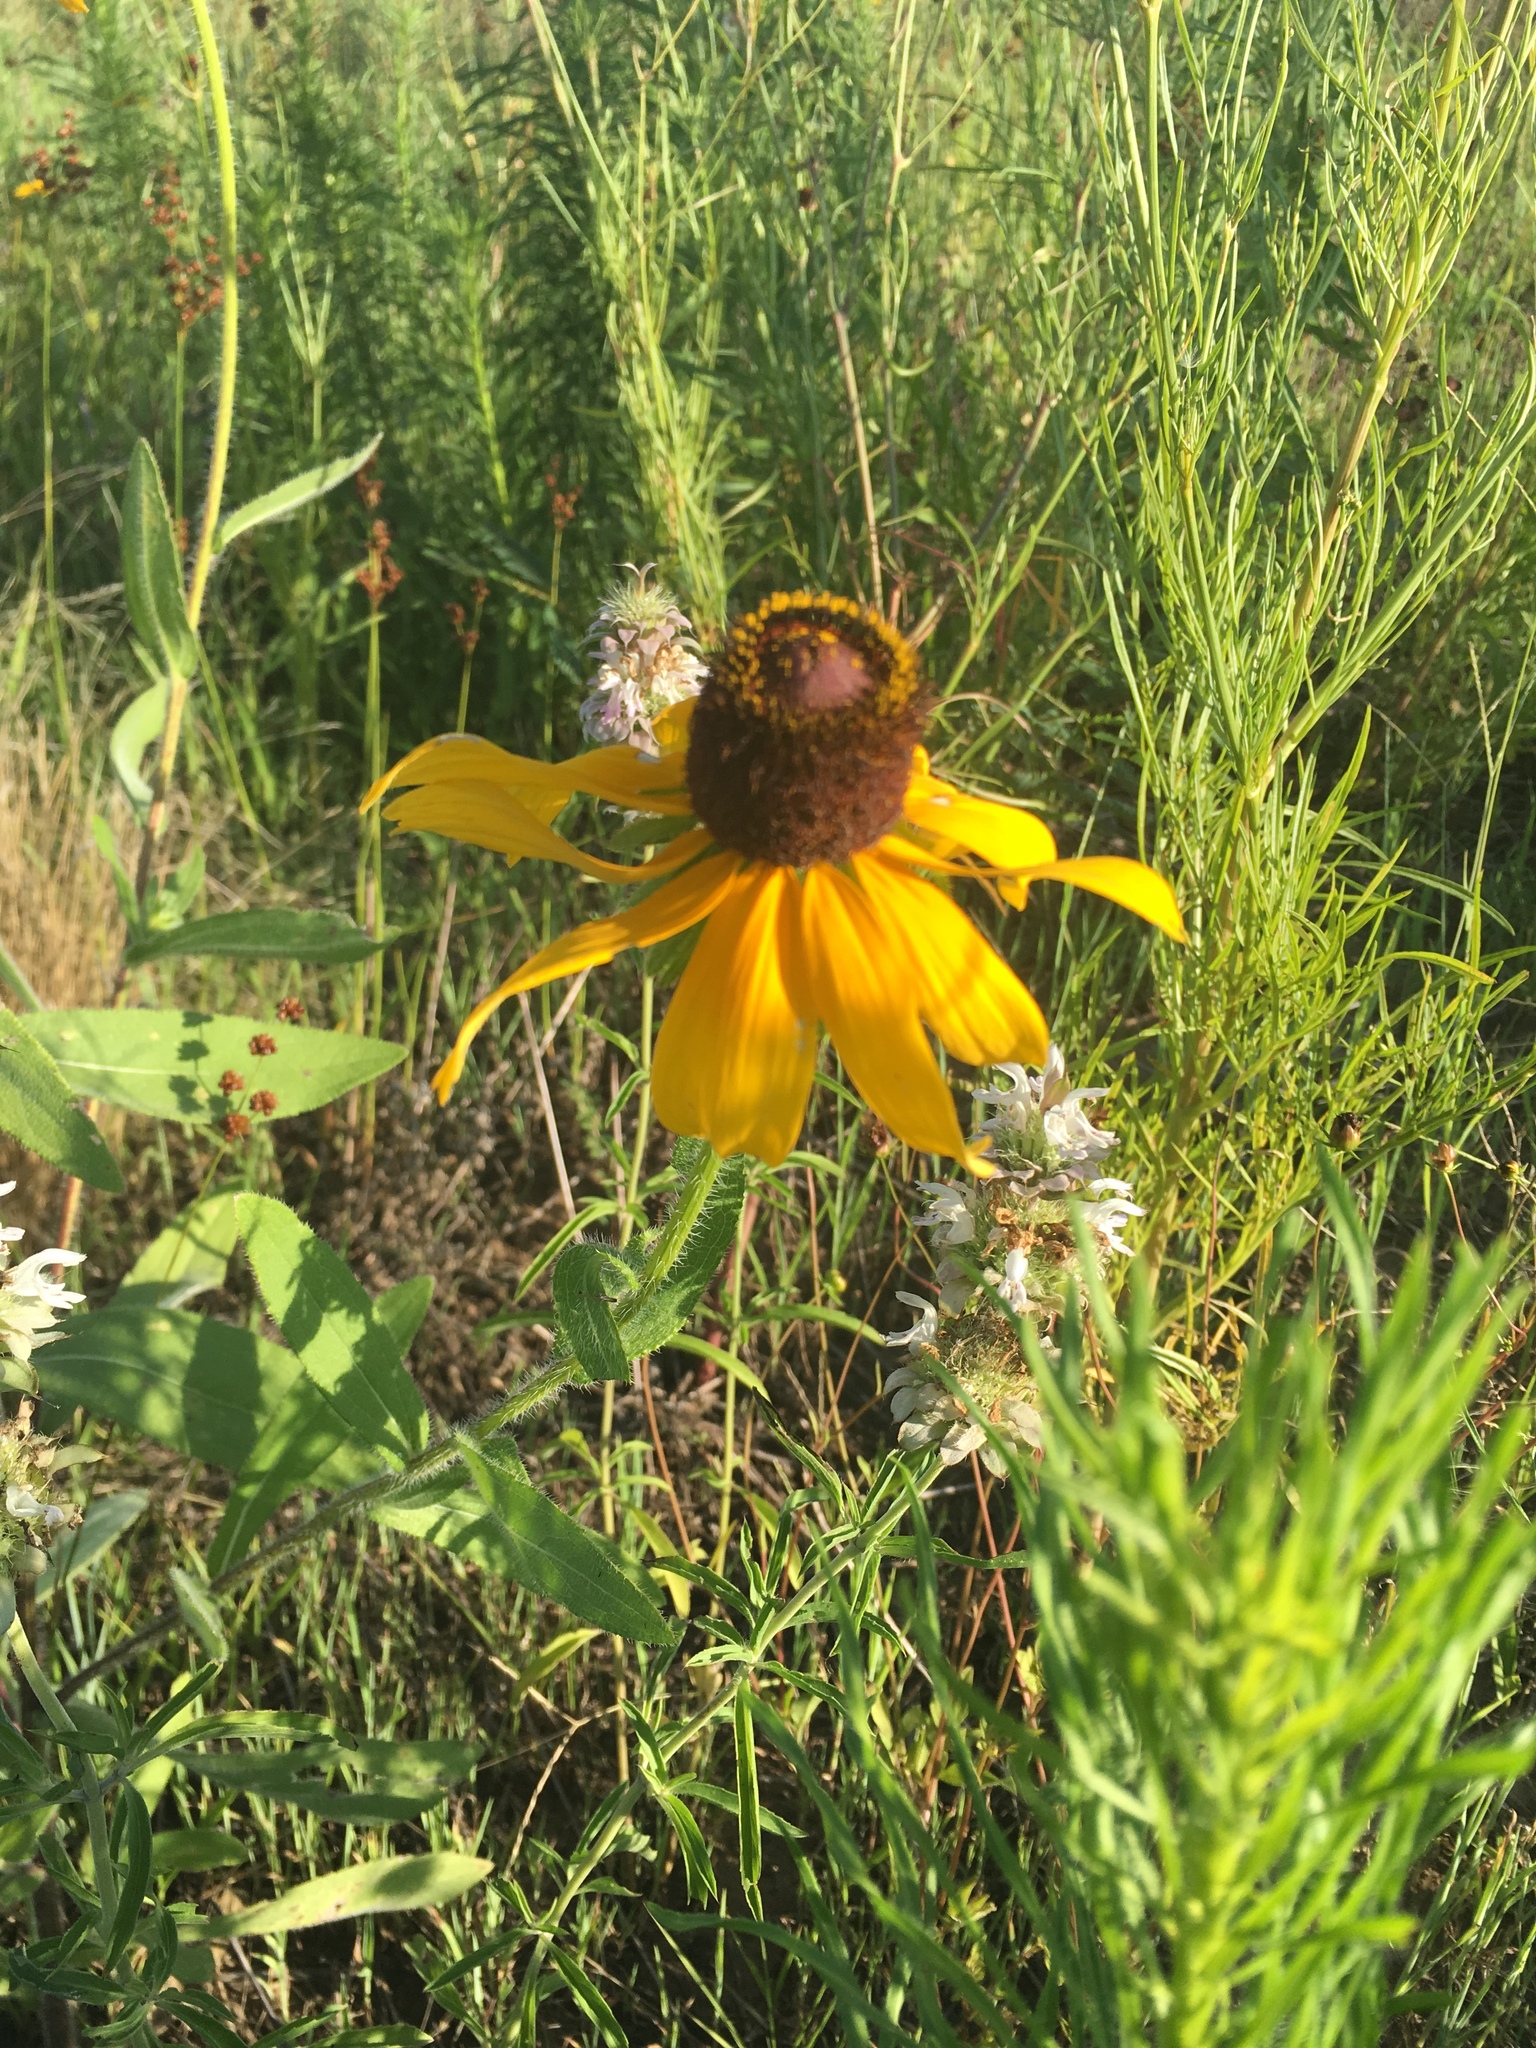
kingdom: Plantae
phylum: Tracheophyta
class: Magnoliopsida
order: Asterales
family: Asteraceae
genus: Rudbeckia
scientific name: Rudbeckia hirta
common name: Black-eyed-susan
